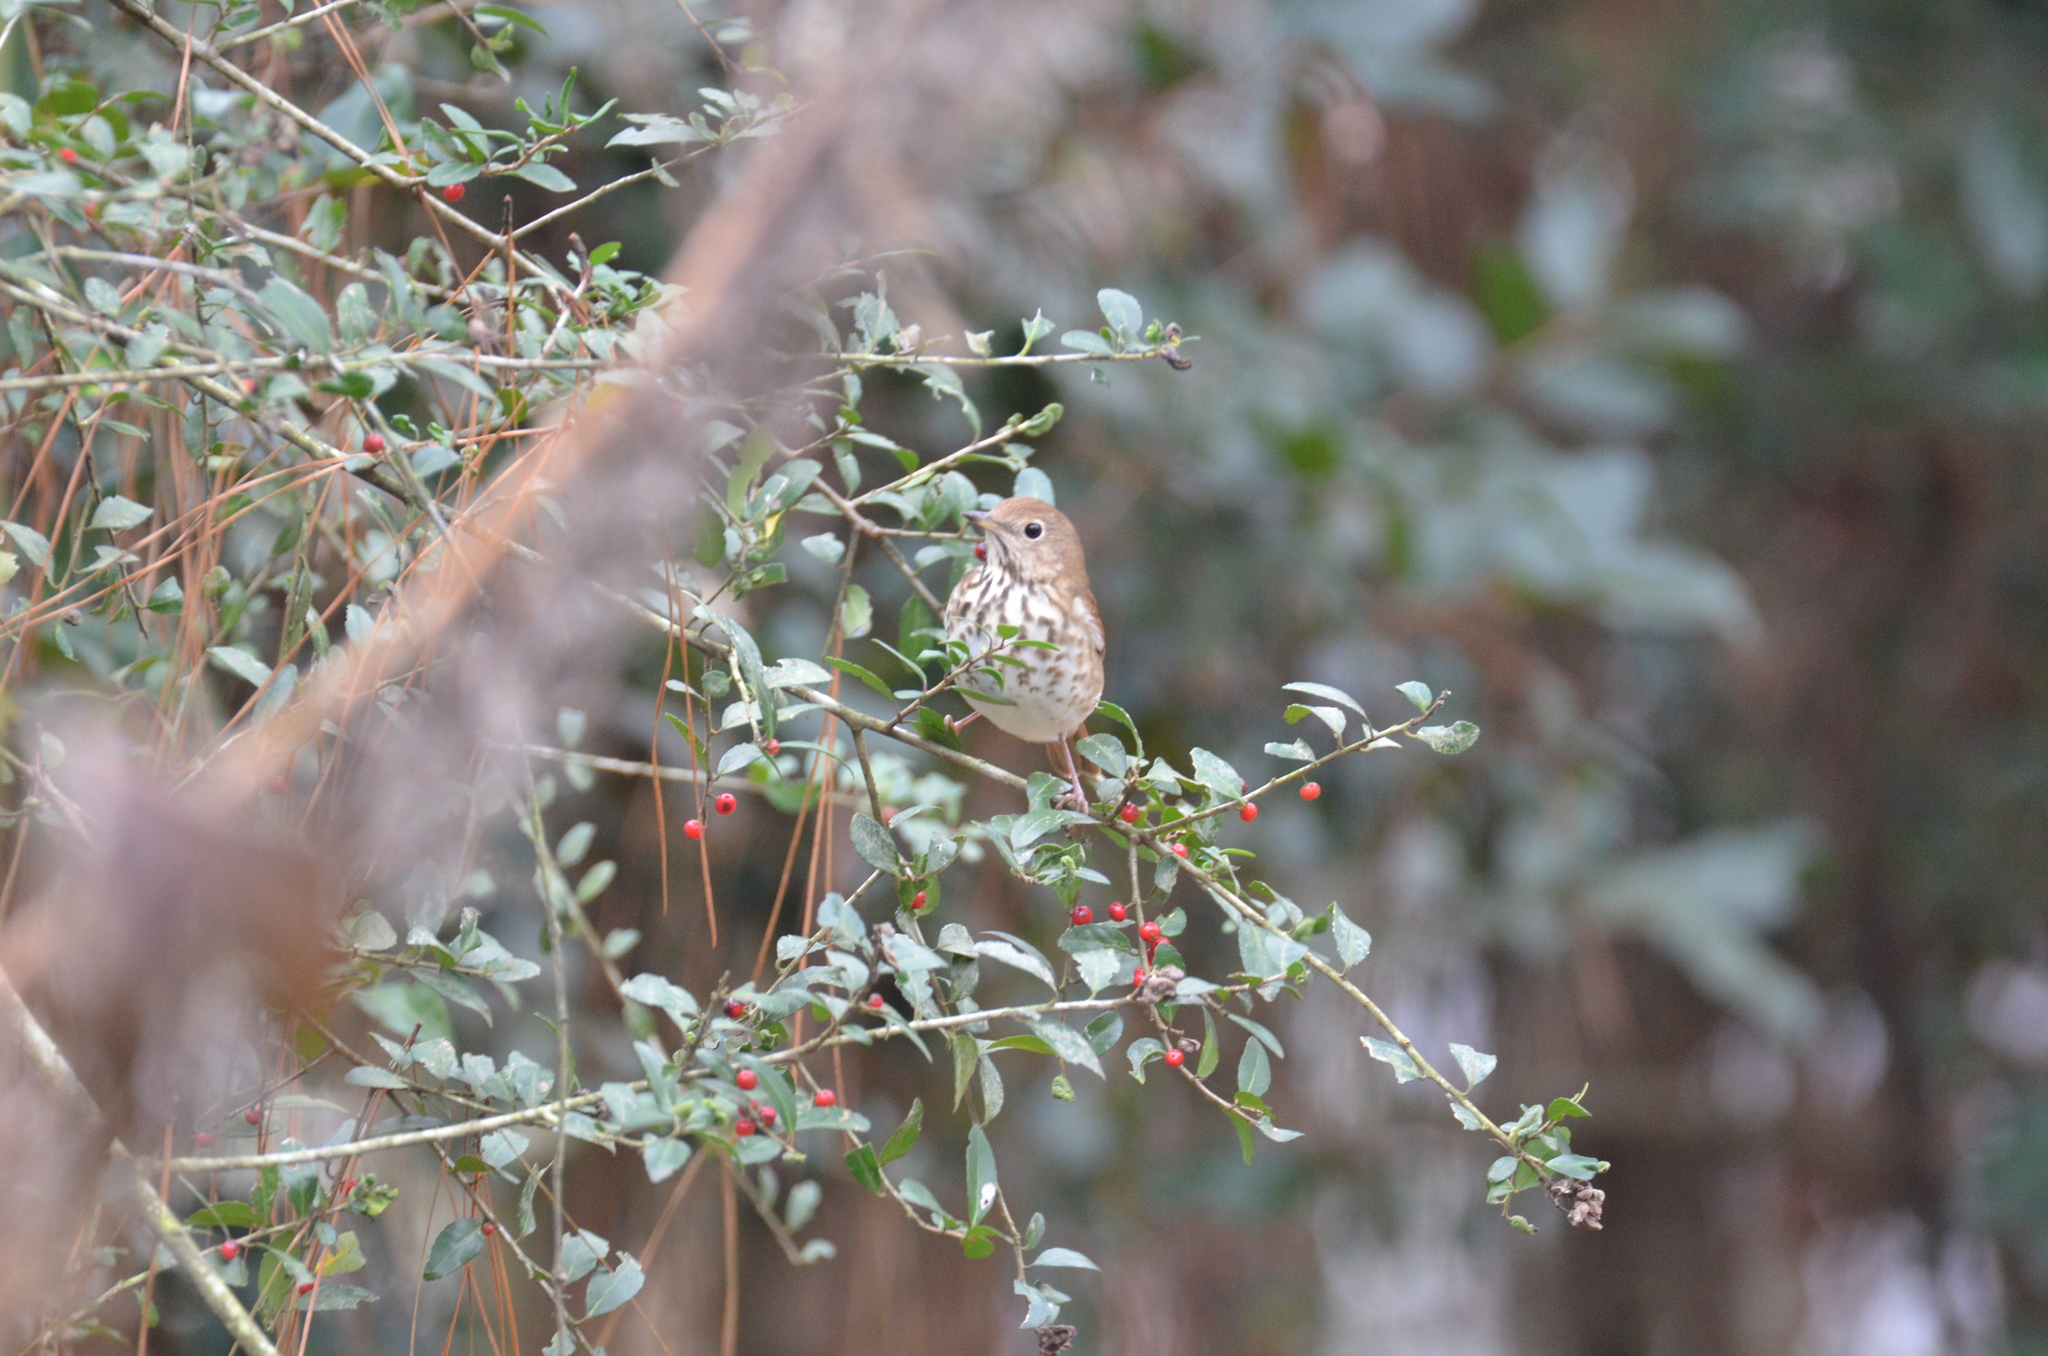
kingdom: Animalia
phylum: Chordata
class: Aves
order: Passeriformes
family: Turdidae
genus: Catharus
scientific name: Catharus guttatus
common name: Hermit thrush
